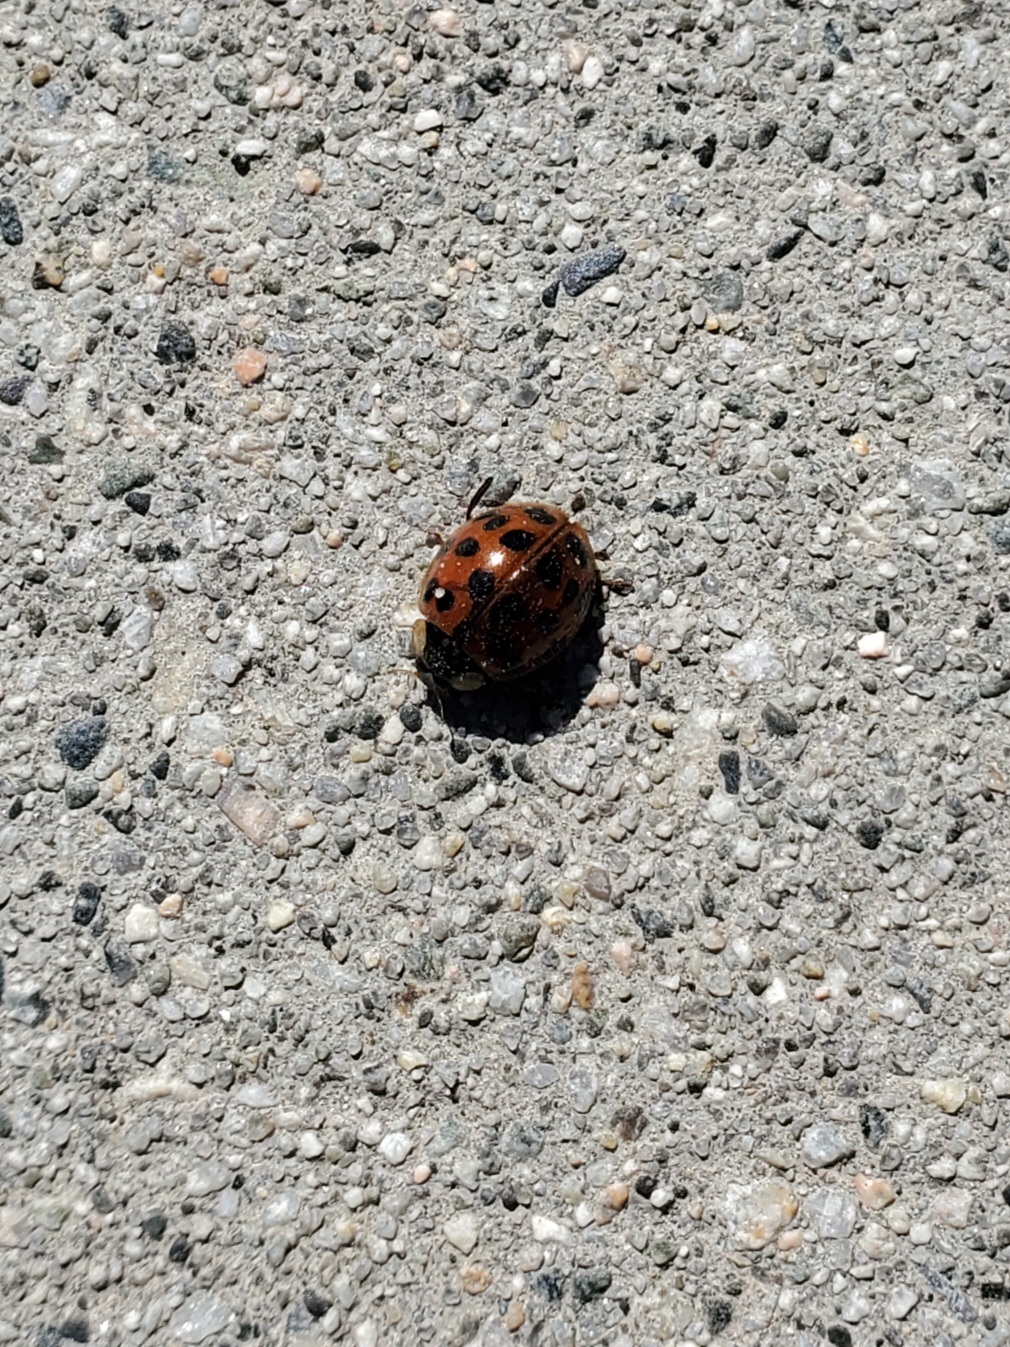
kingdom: Animalia
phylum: Arthropoda
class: Insecta
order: Coleoptera
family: Coccinellidae
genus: Harmonia
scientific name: Harmonia axyridis
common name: Harlequin ladybird
